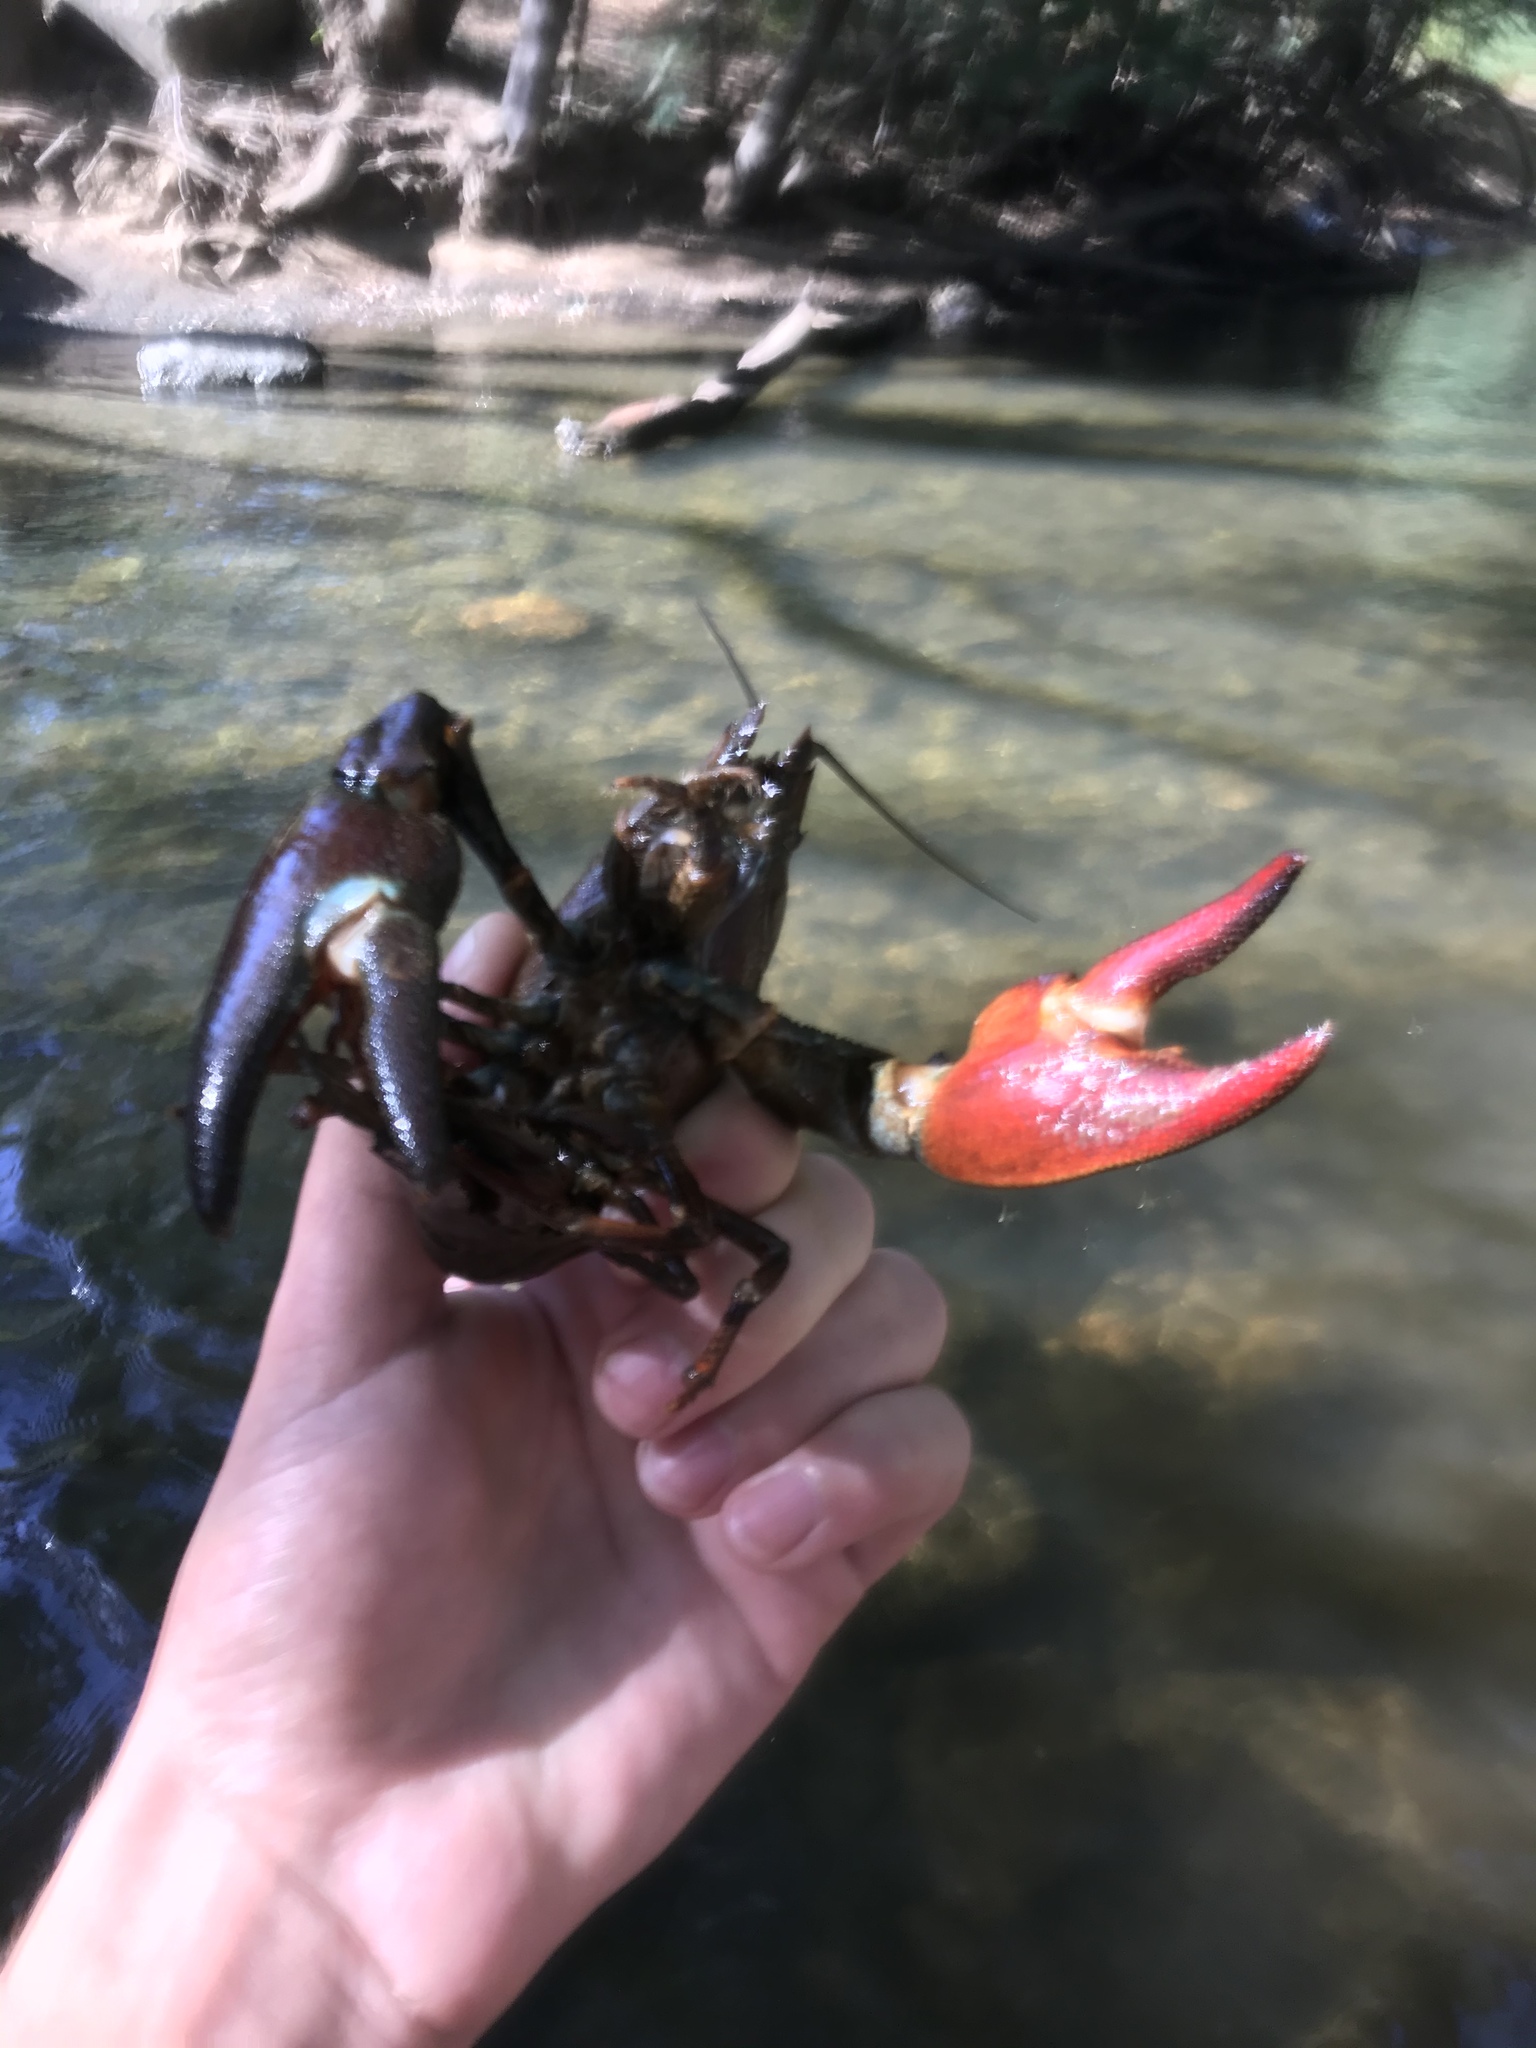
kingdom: Animalia
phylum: Arthropoda
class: Malacostraca
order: Decapoda
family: Astacidae
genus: Pacifastacus
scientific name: Pacifastacus leniusculus
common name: Signal crayfish
